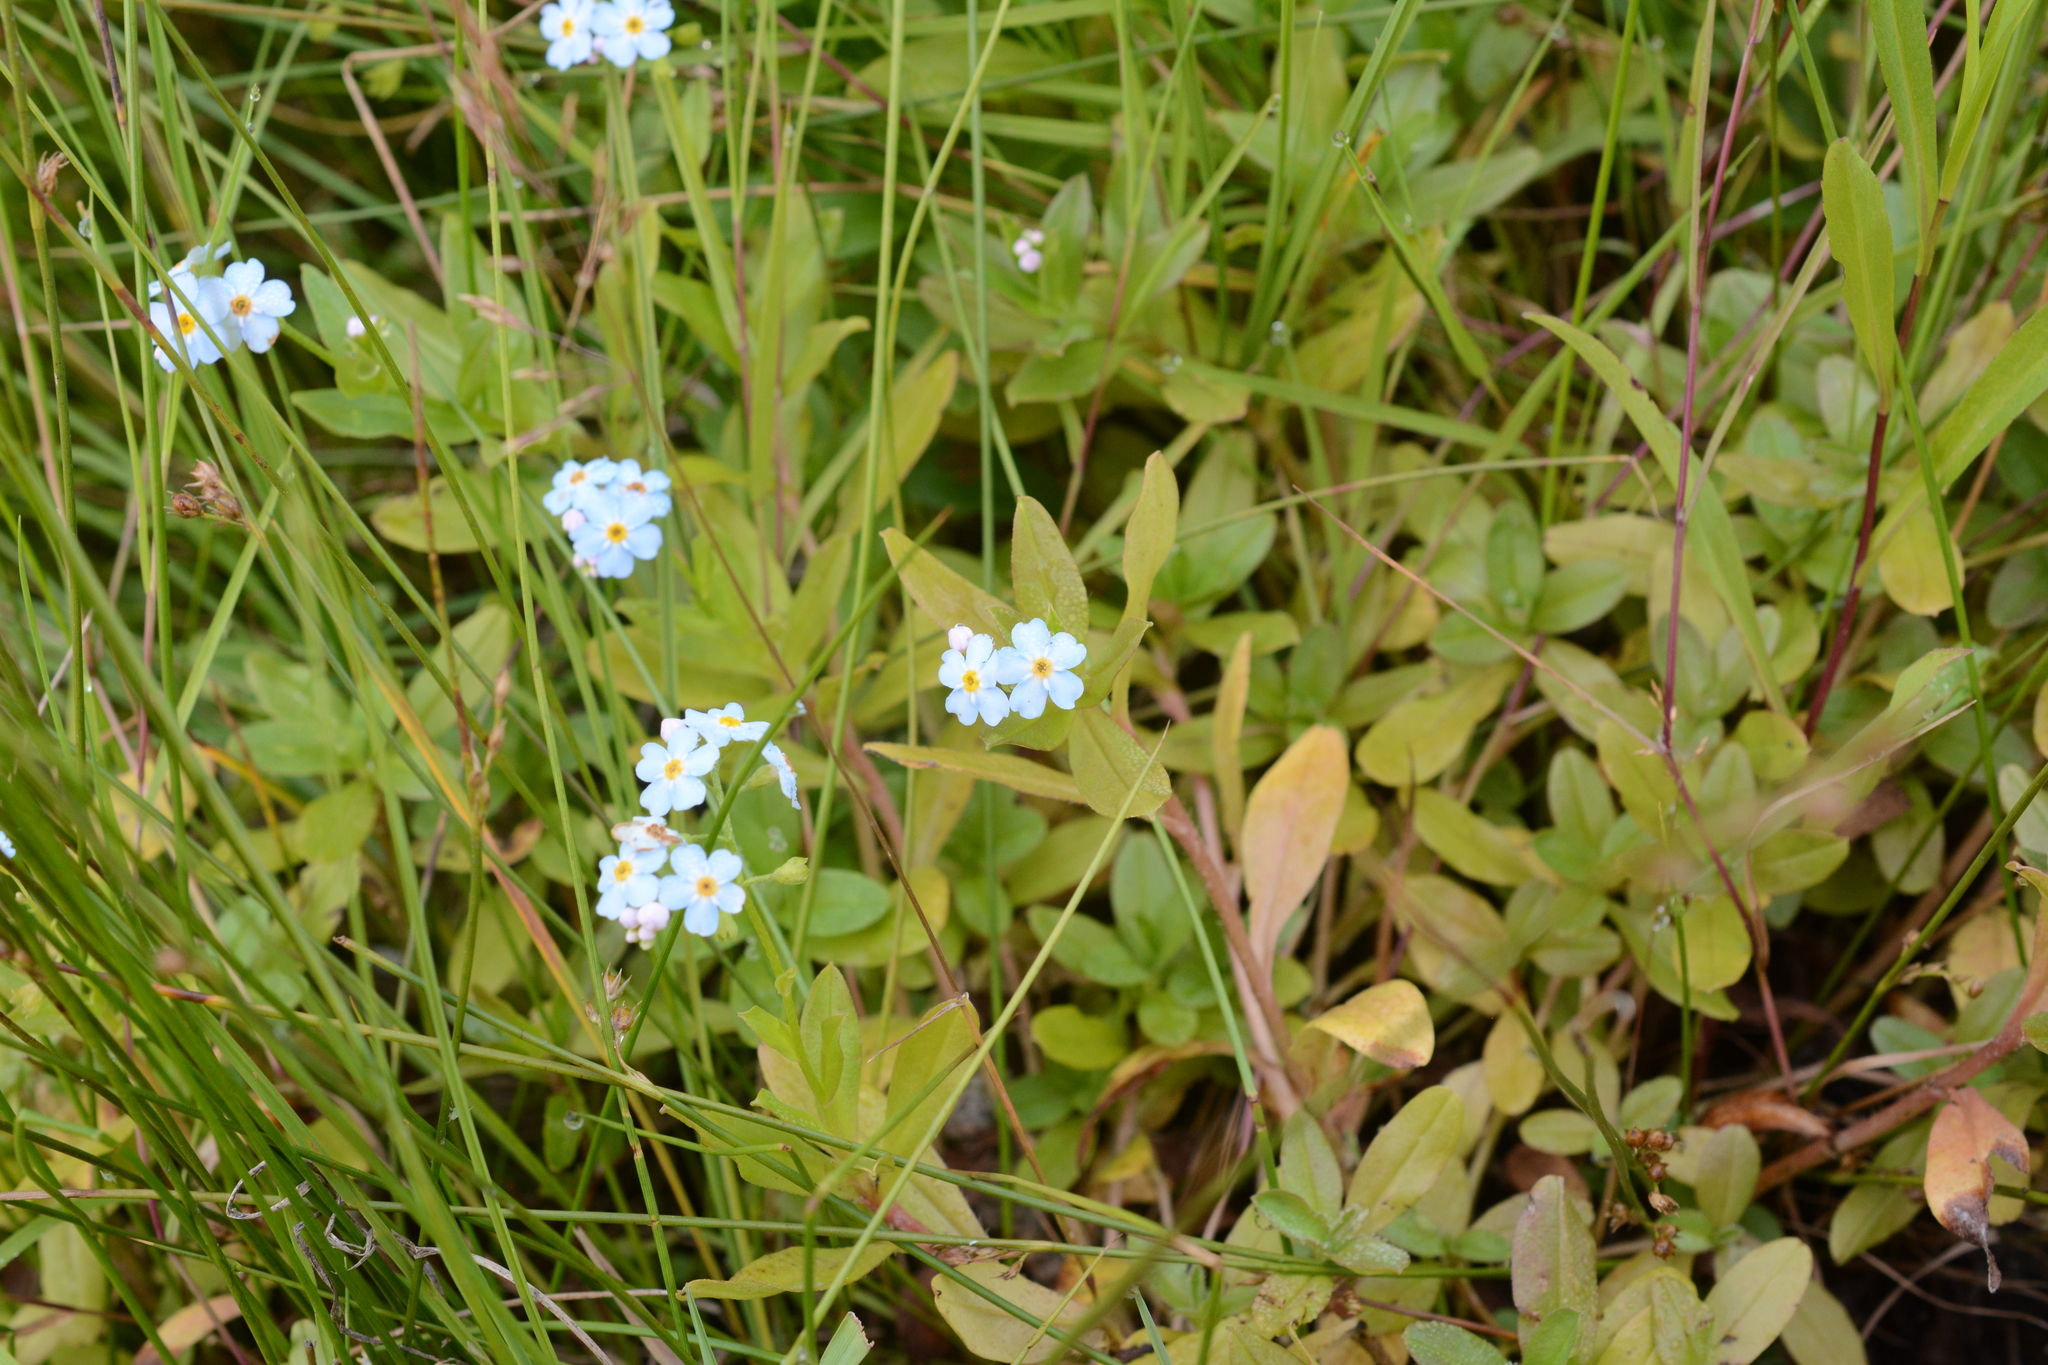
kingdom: Plantae
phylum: Tracheophyta
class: Magnoliopsida
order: Boraginales
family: Boraginaceae
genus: Myosotis
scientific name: Myosotis scorpioides
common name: Water forget-me-not
